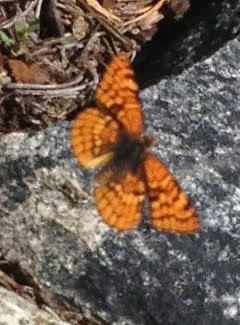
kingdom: Animalia
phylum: Arthropoda
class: Insecta
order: Lepidoptera
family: Nymphalidae
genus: Chlosyne
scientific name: Chlosyne palla
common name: Northern checkerspot
